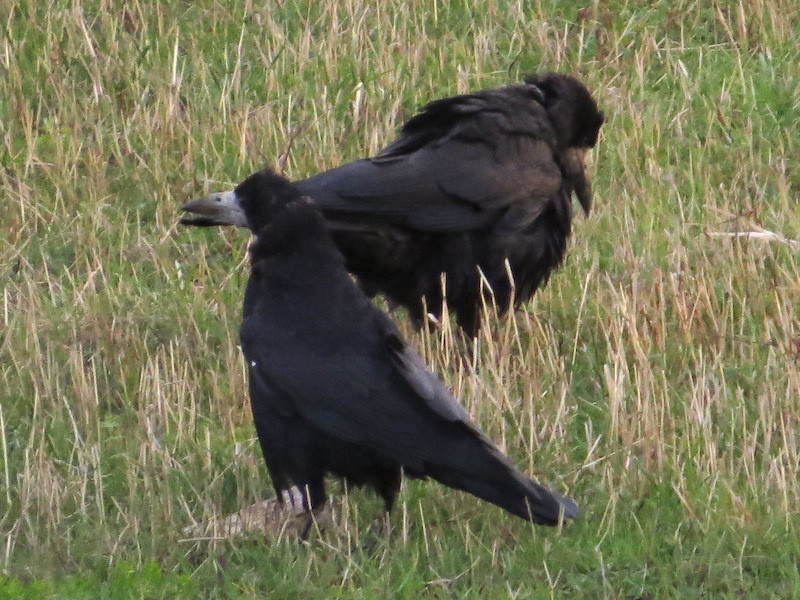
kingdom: Animalia
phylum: Chordata
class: Aves
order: Passeriformes
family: Corvidae
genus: Corvus
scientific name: Corvus frugilegus
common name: Rook
